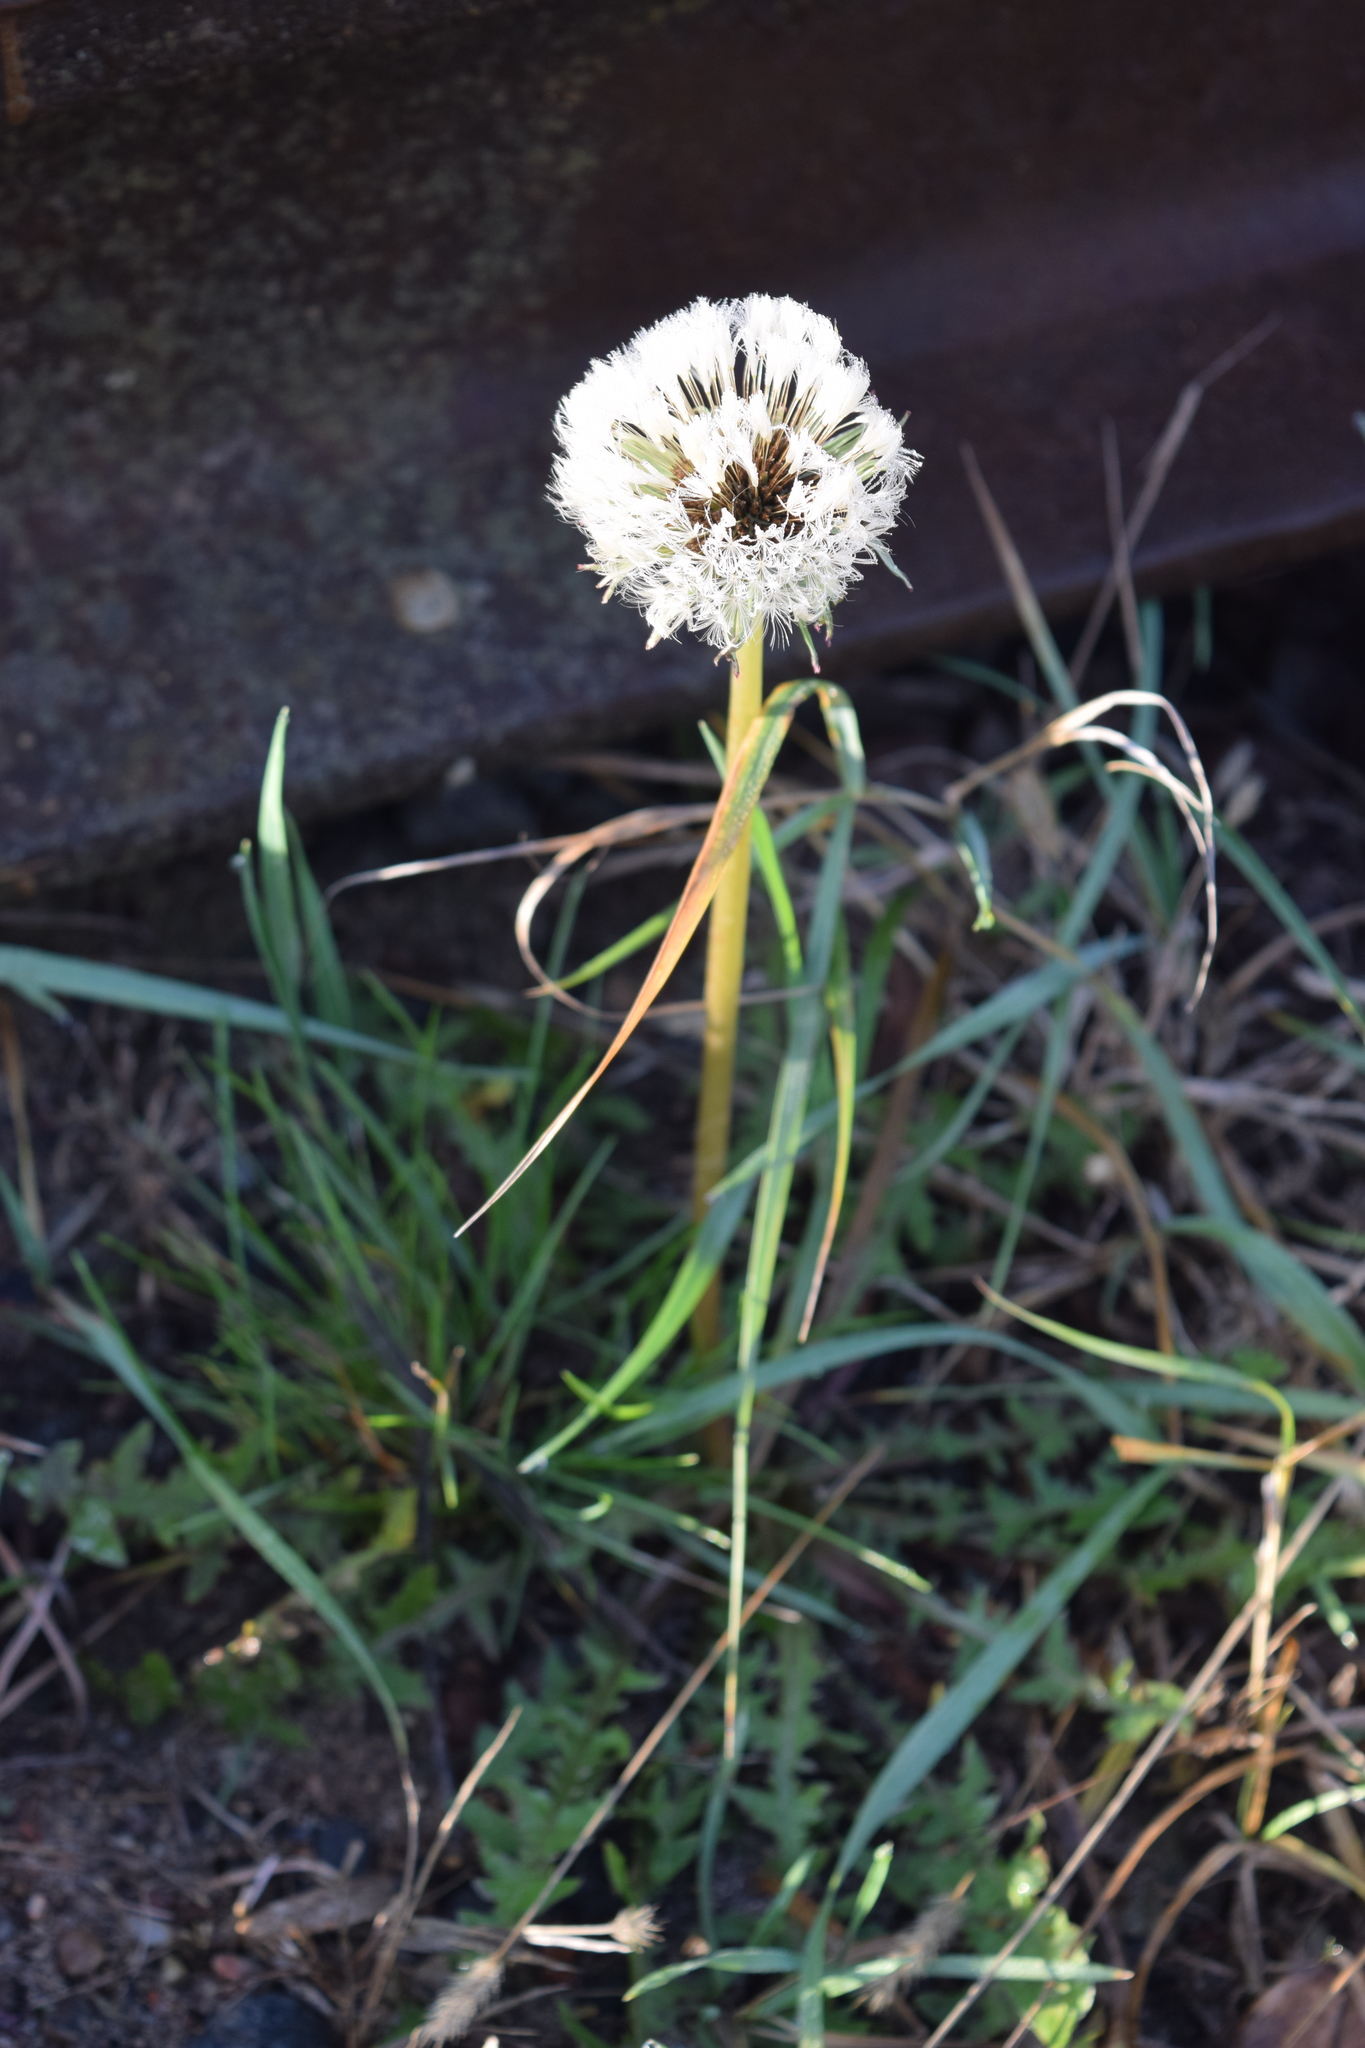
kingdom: Plantae
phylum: Tracheophyta
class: Magnoliopsida
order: Asterales
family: Asteraceae
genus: Taraxacum
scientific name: Taraxacum officinale
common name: Common dandelion
